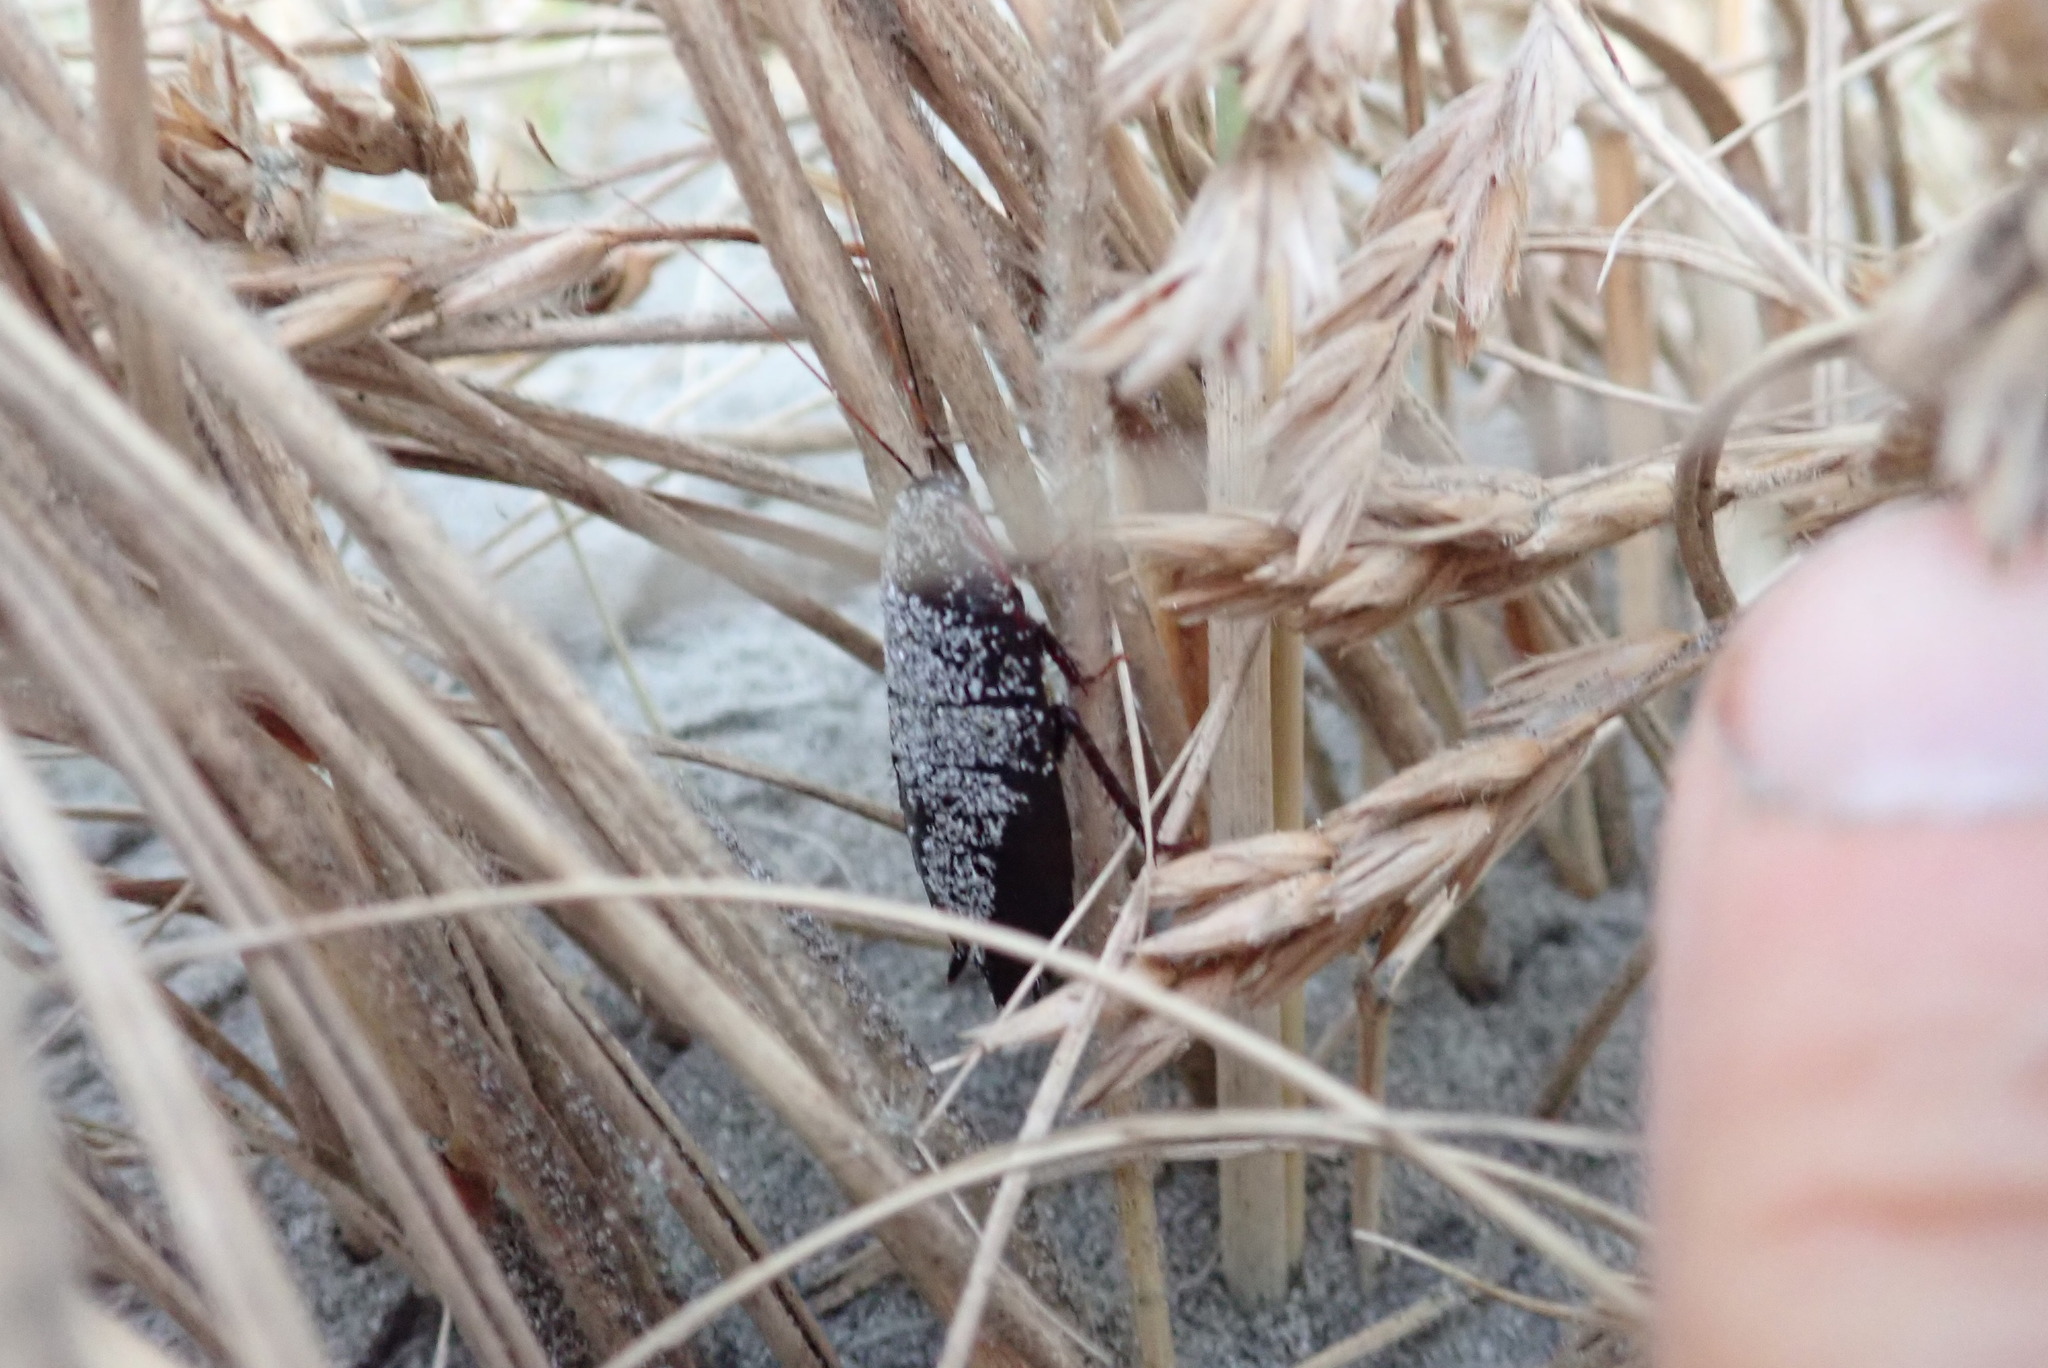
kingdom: Animalia
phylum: Arthropoda
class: Insecta
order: Blattodea
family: Blattidae
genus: Maoriblatta
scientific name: Maoriblatta novaeseelandiae
